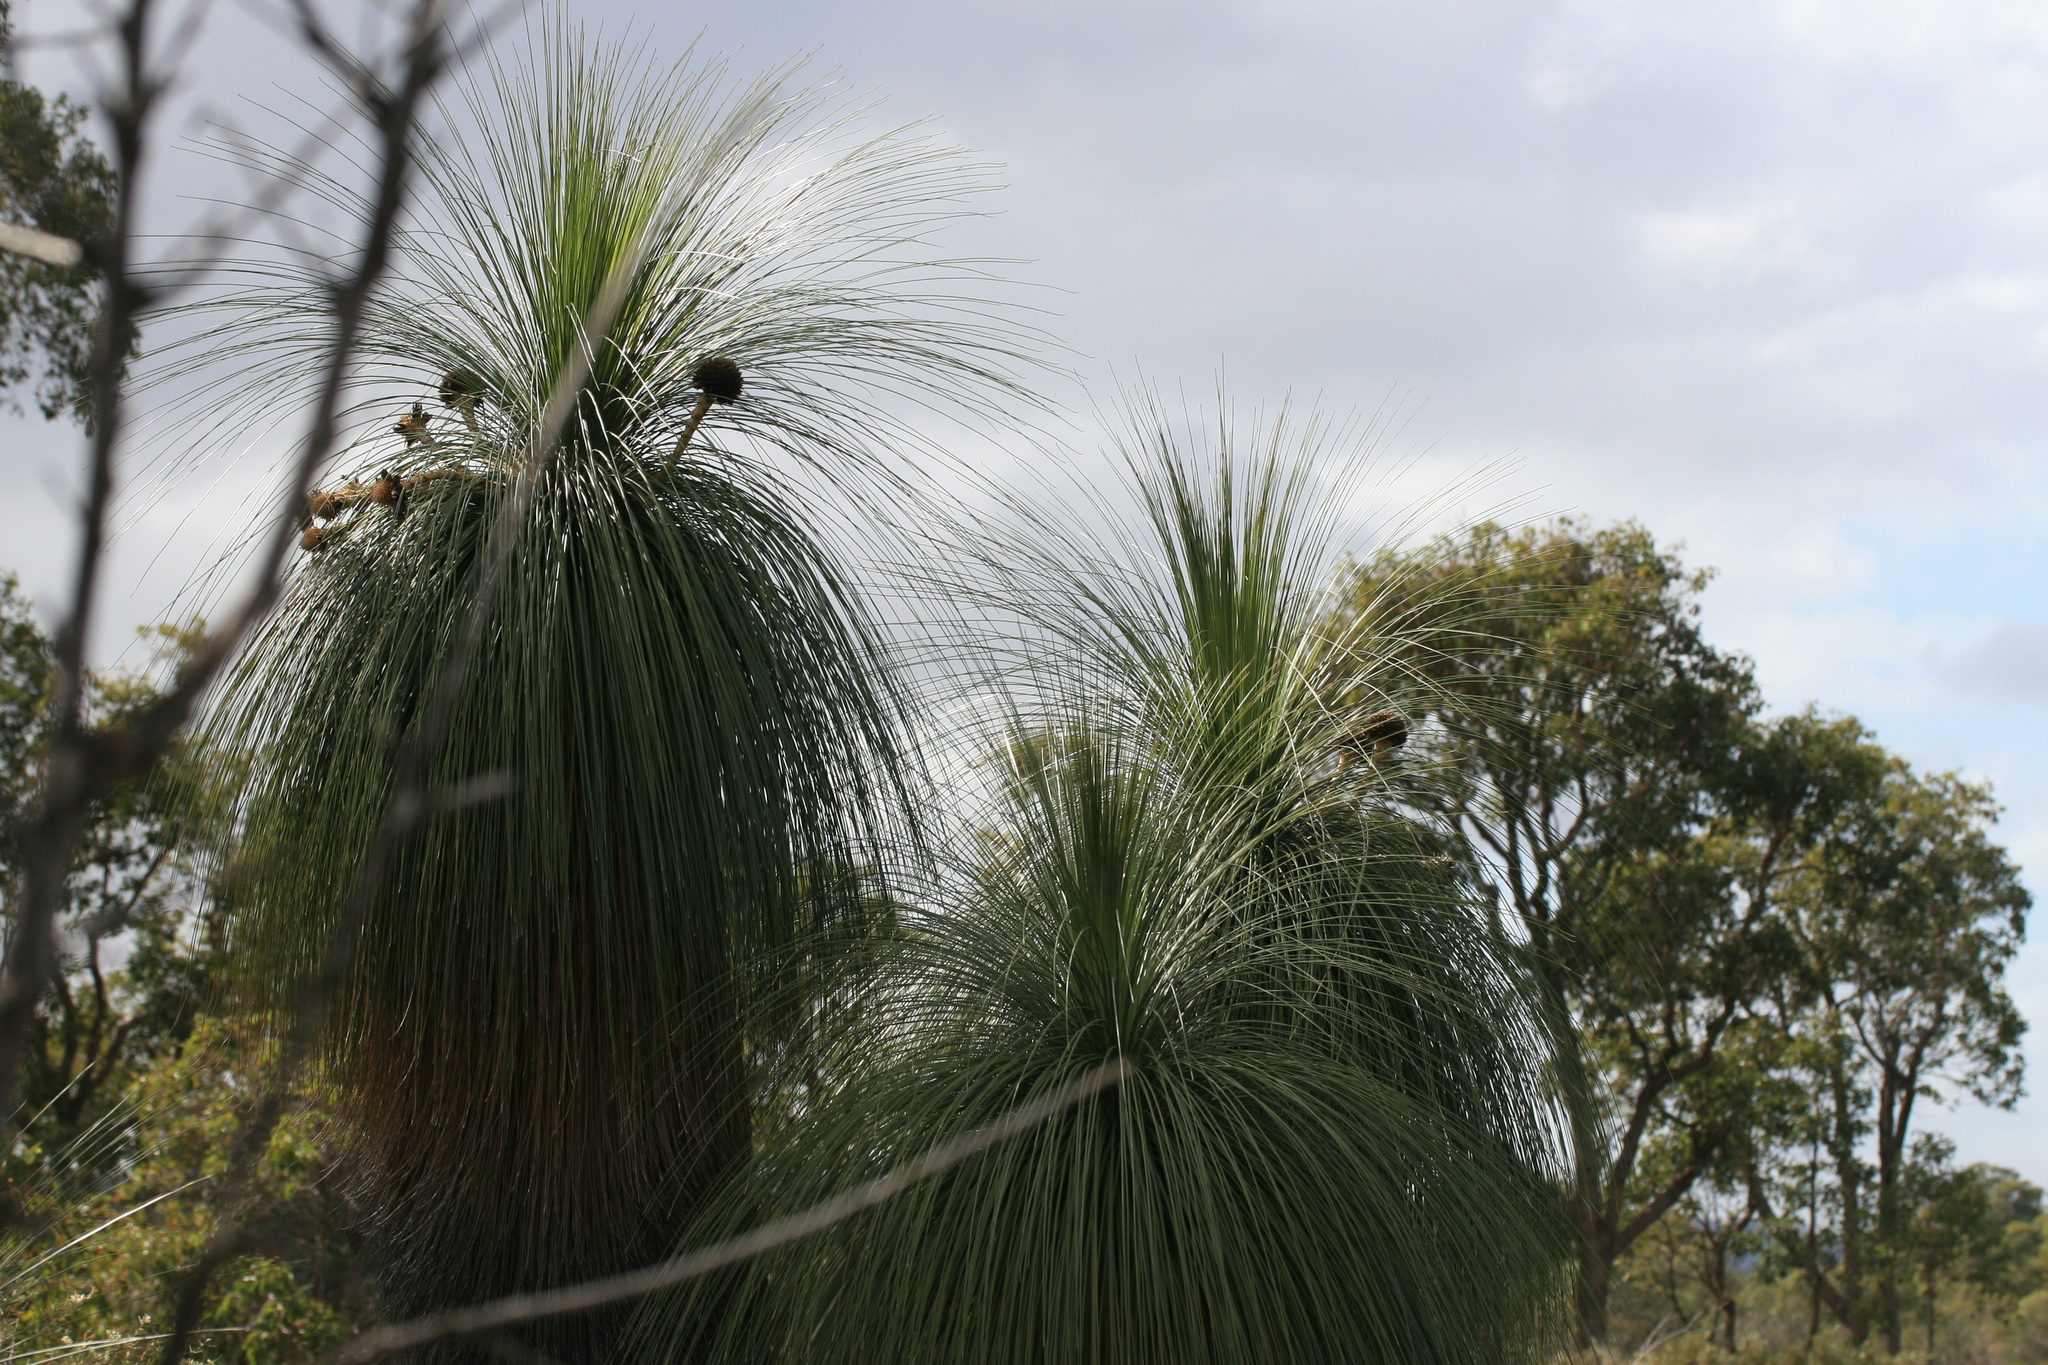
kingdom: Plantae
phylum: Tracheophyta
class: Liliopsida
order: Arecales
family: Dasypogonaceae
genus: Kingia
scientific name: Kingia australis
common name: Black gin
